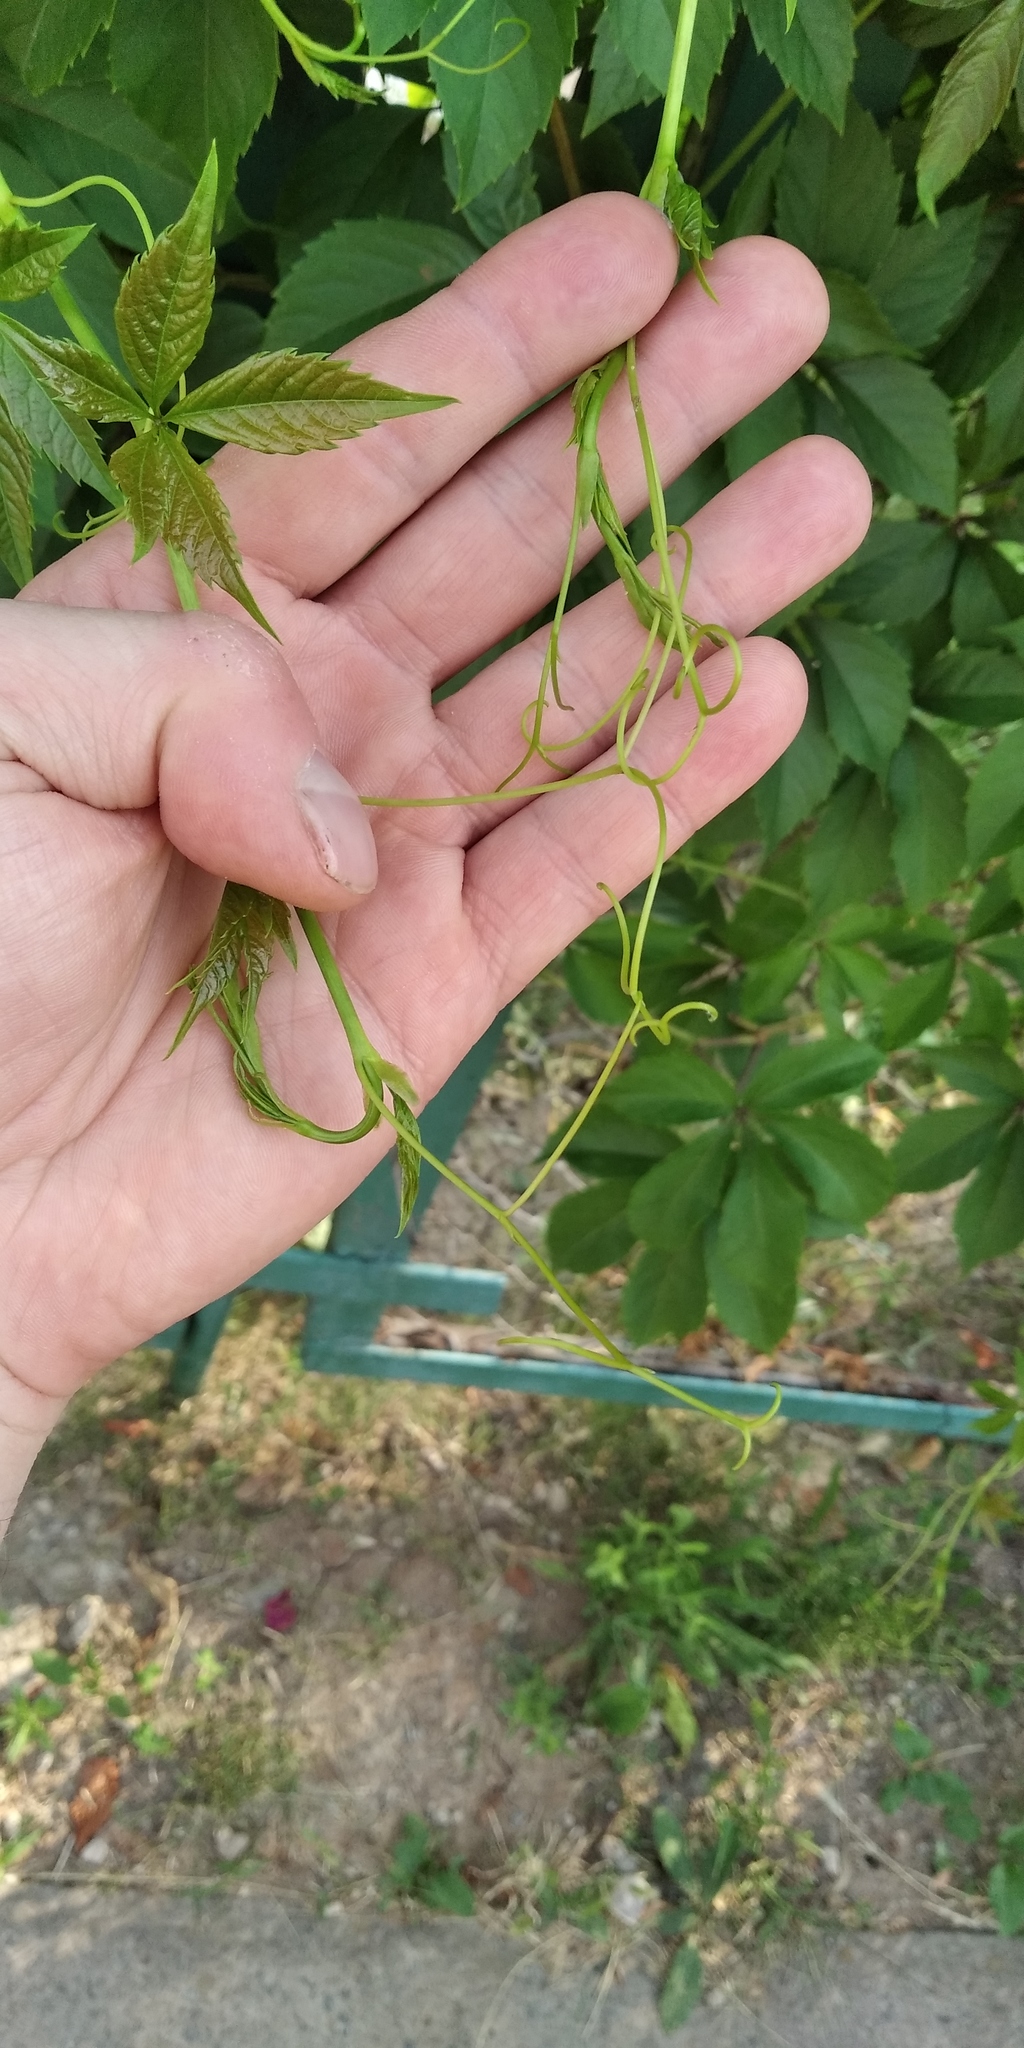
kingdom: Plantae
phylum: Tracheophyta
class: Magnoliopsida
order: Vitales
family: Vitaceae
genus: Parthenocissus
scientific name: Parthenocissus inserta
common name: False virginia-creeper
